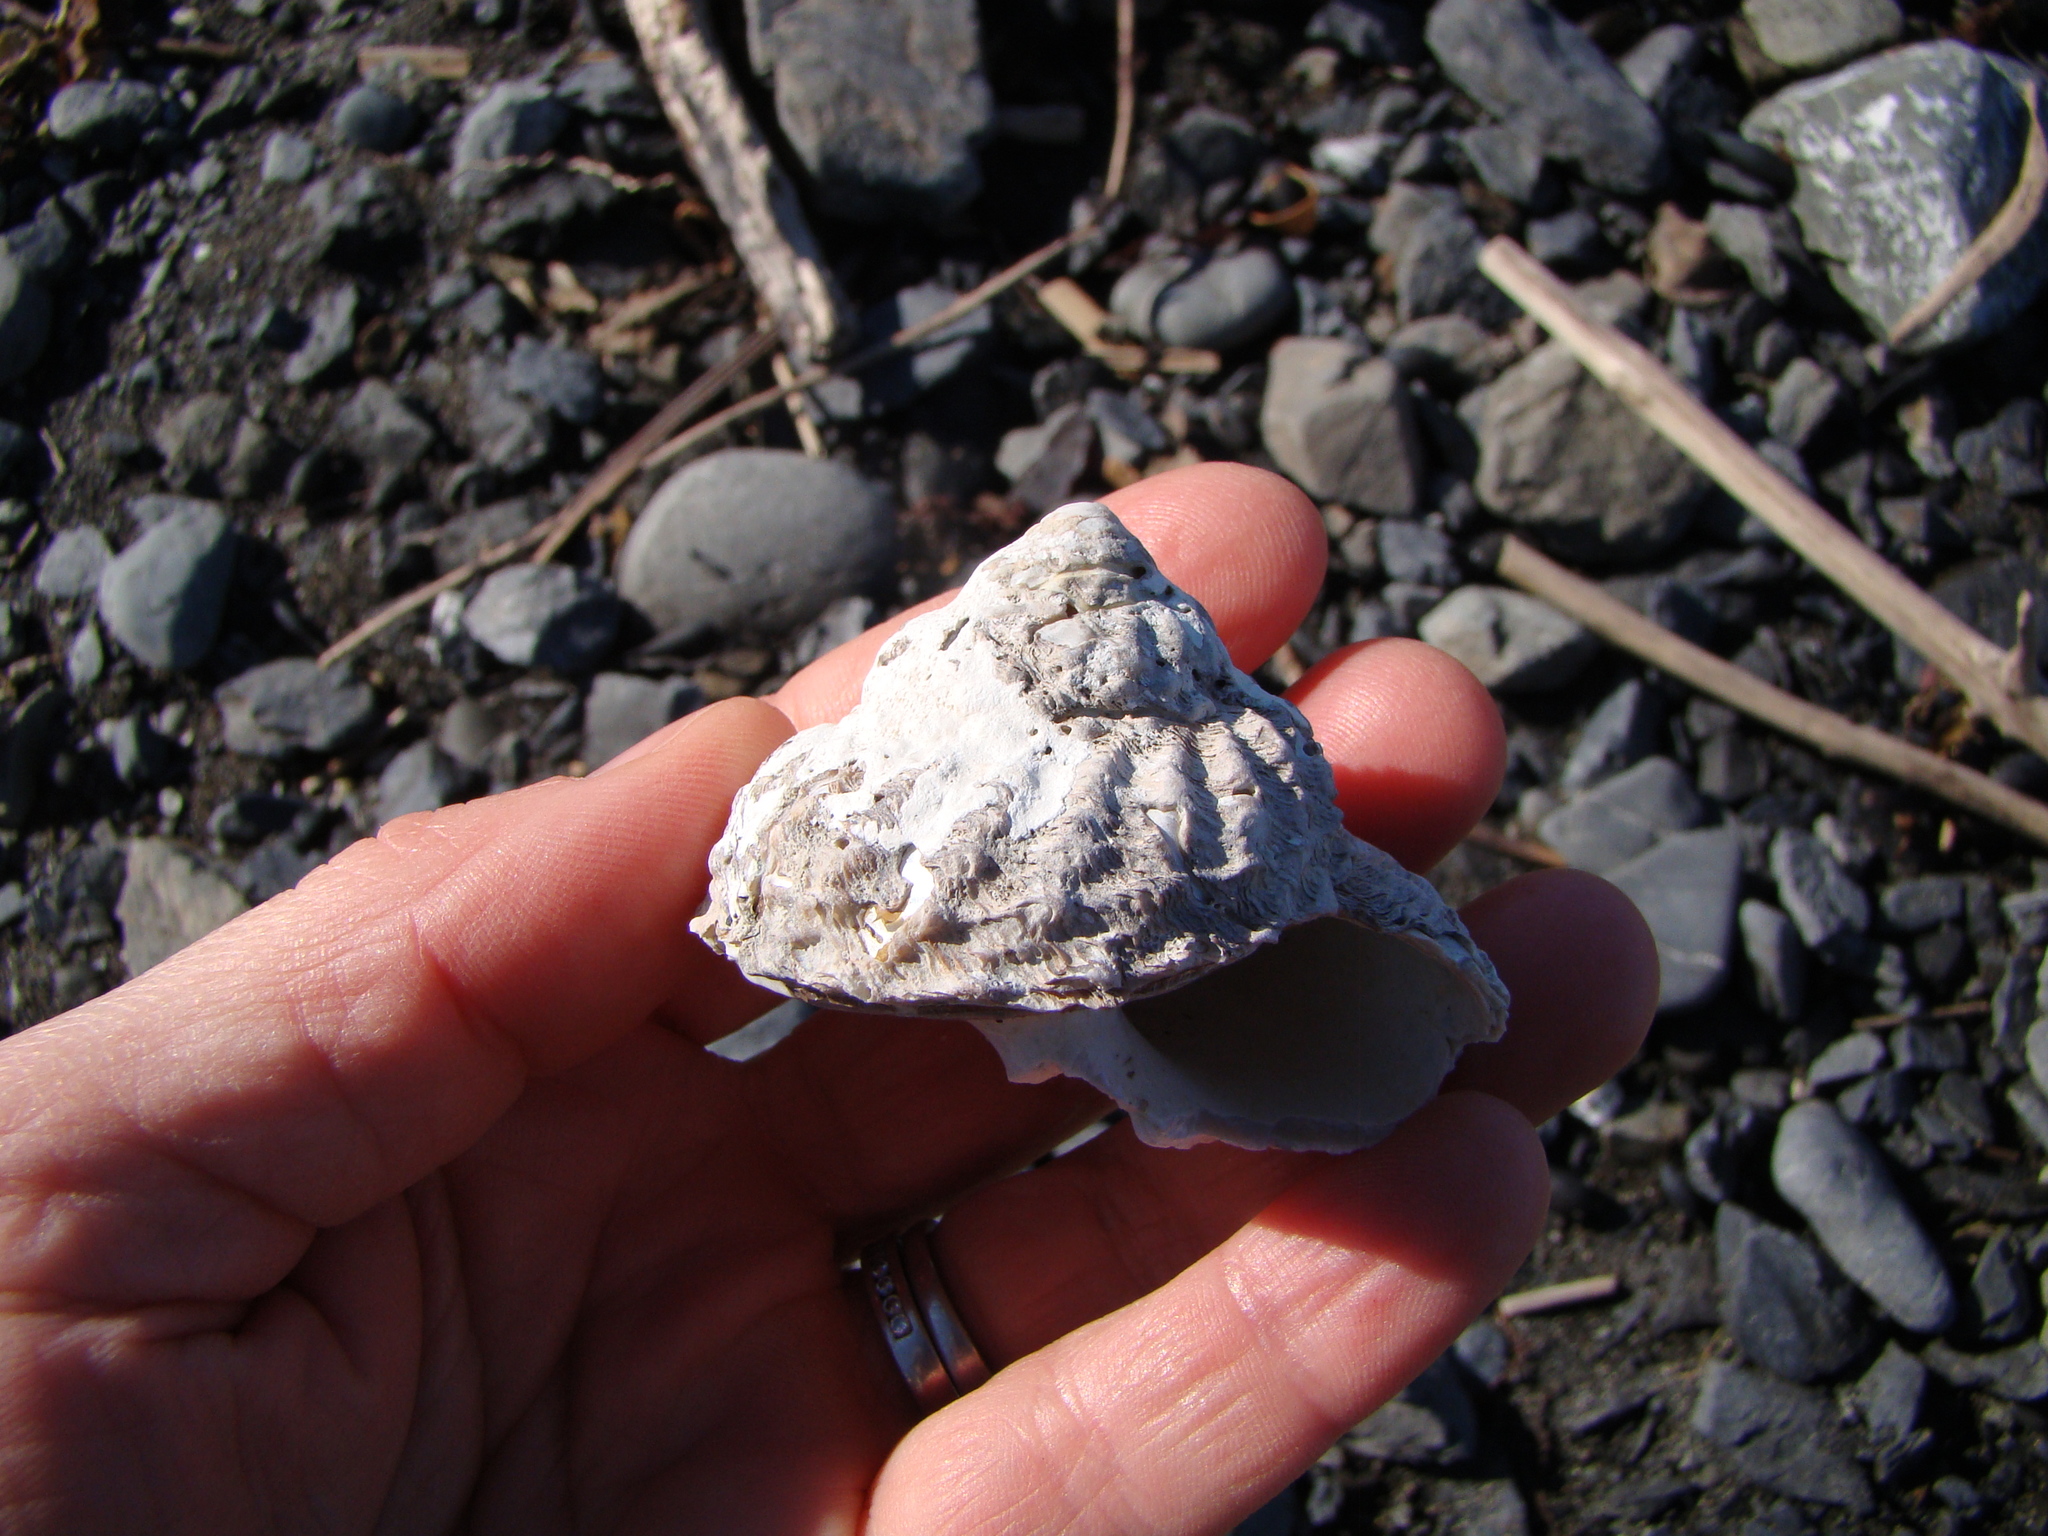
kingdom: Animalia
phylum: Mollusca
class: Gastropoda
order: Trochida
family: Turbinidae
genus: Cookia
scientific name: Cookia sulcata
